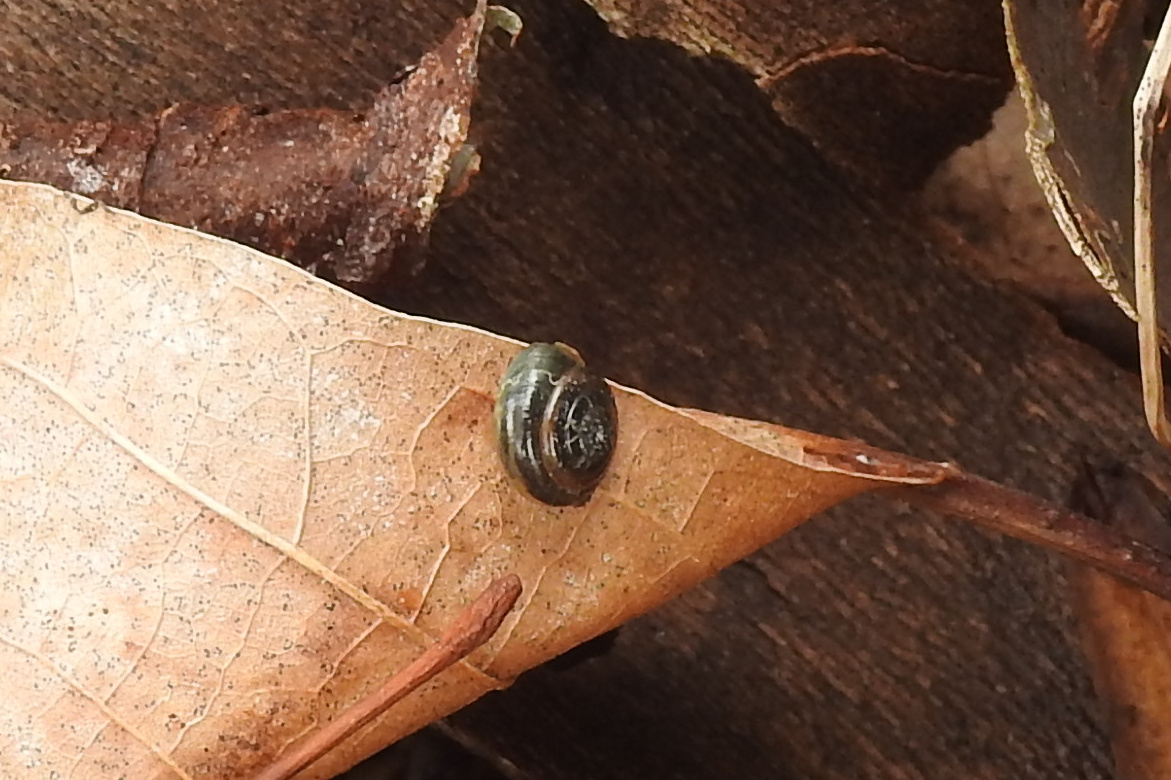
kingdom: Animalia
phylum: Mollusca
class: Gastropoda
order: Stylommatophora
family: Gastrodontidae
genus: Zonitoides
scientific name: Zonitoides arboreus
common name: Quick gloss
